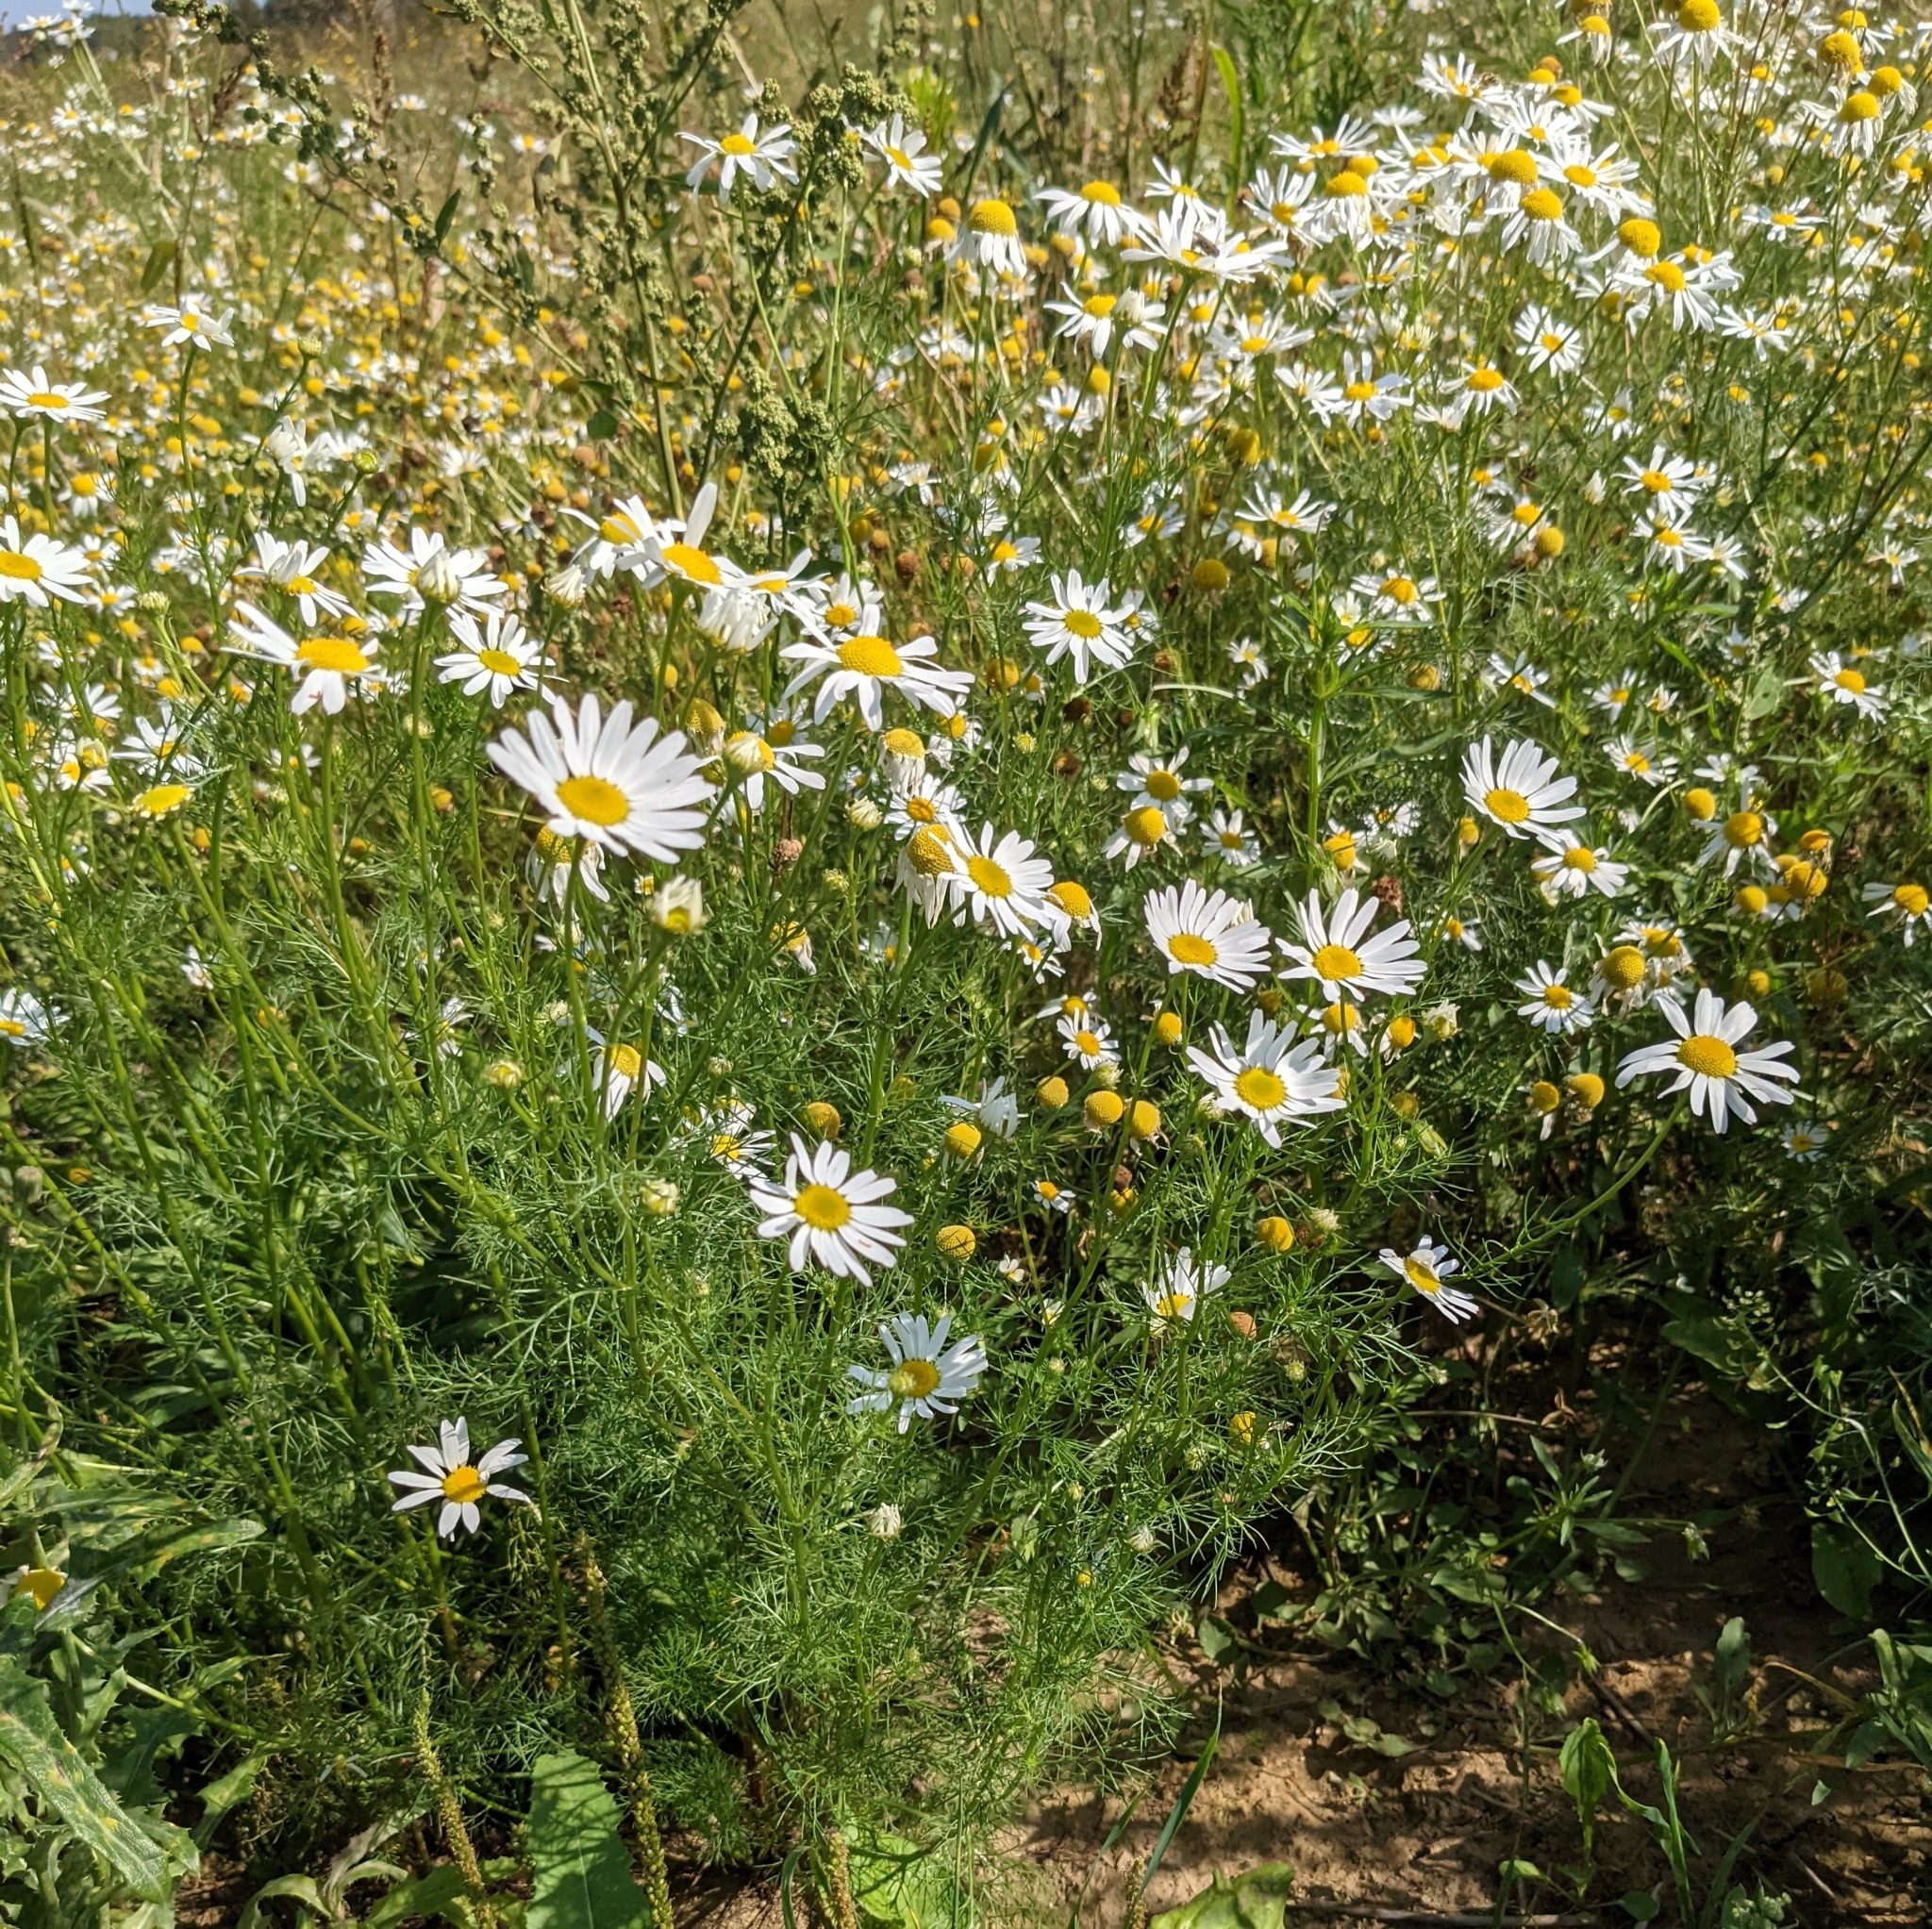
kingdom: Plantae
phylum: Tracheophyta
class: Magnoliopsida
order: Asterales
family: Asteraceae
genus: Tripleurospermum
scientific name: Tripleurospermum inodorum
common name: Scentless mayweed
